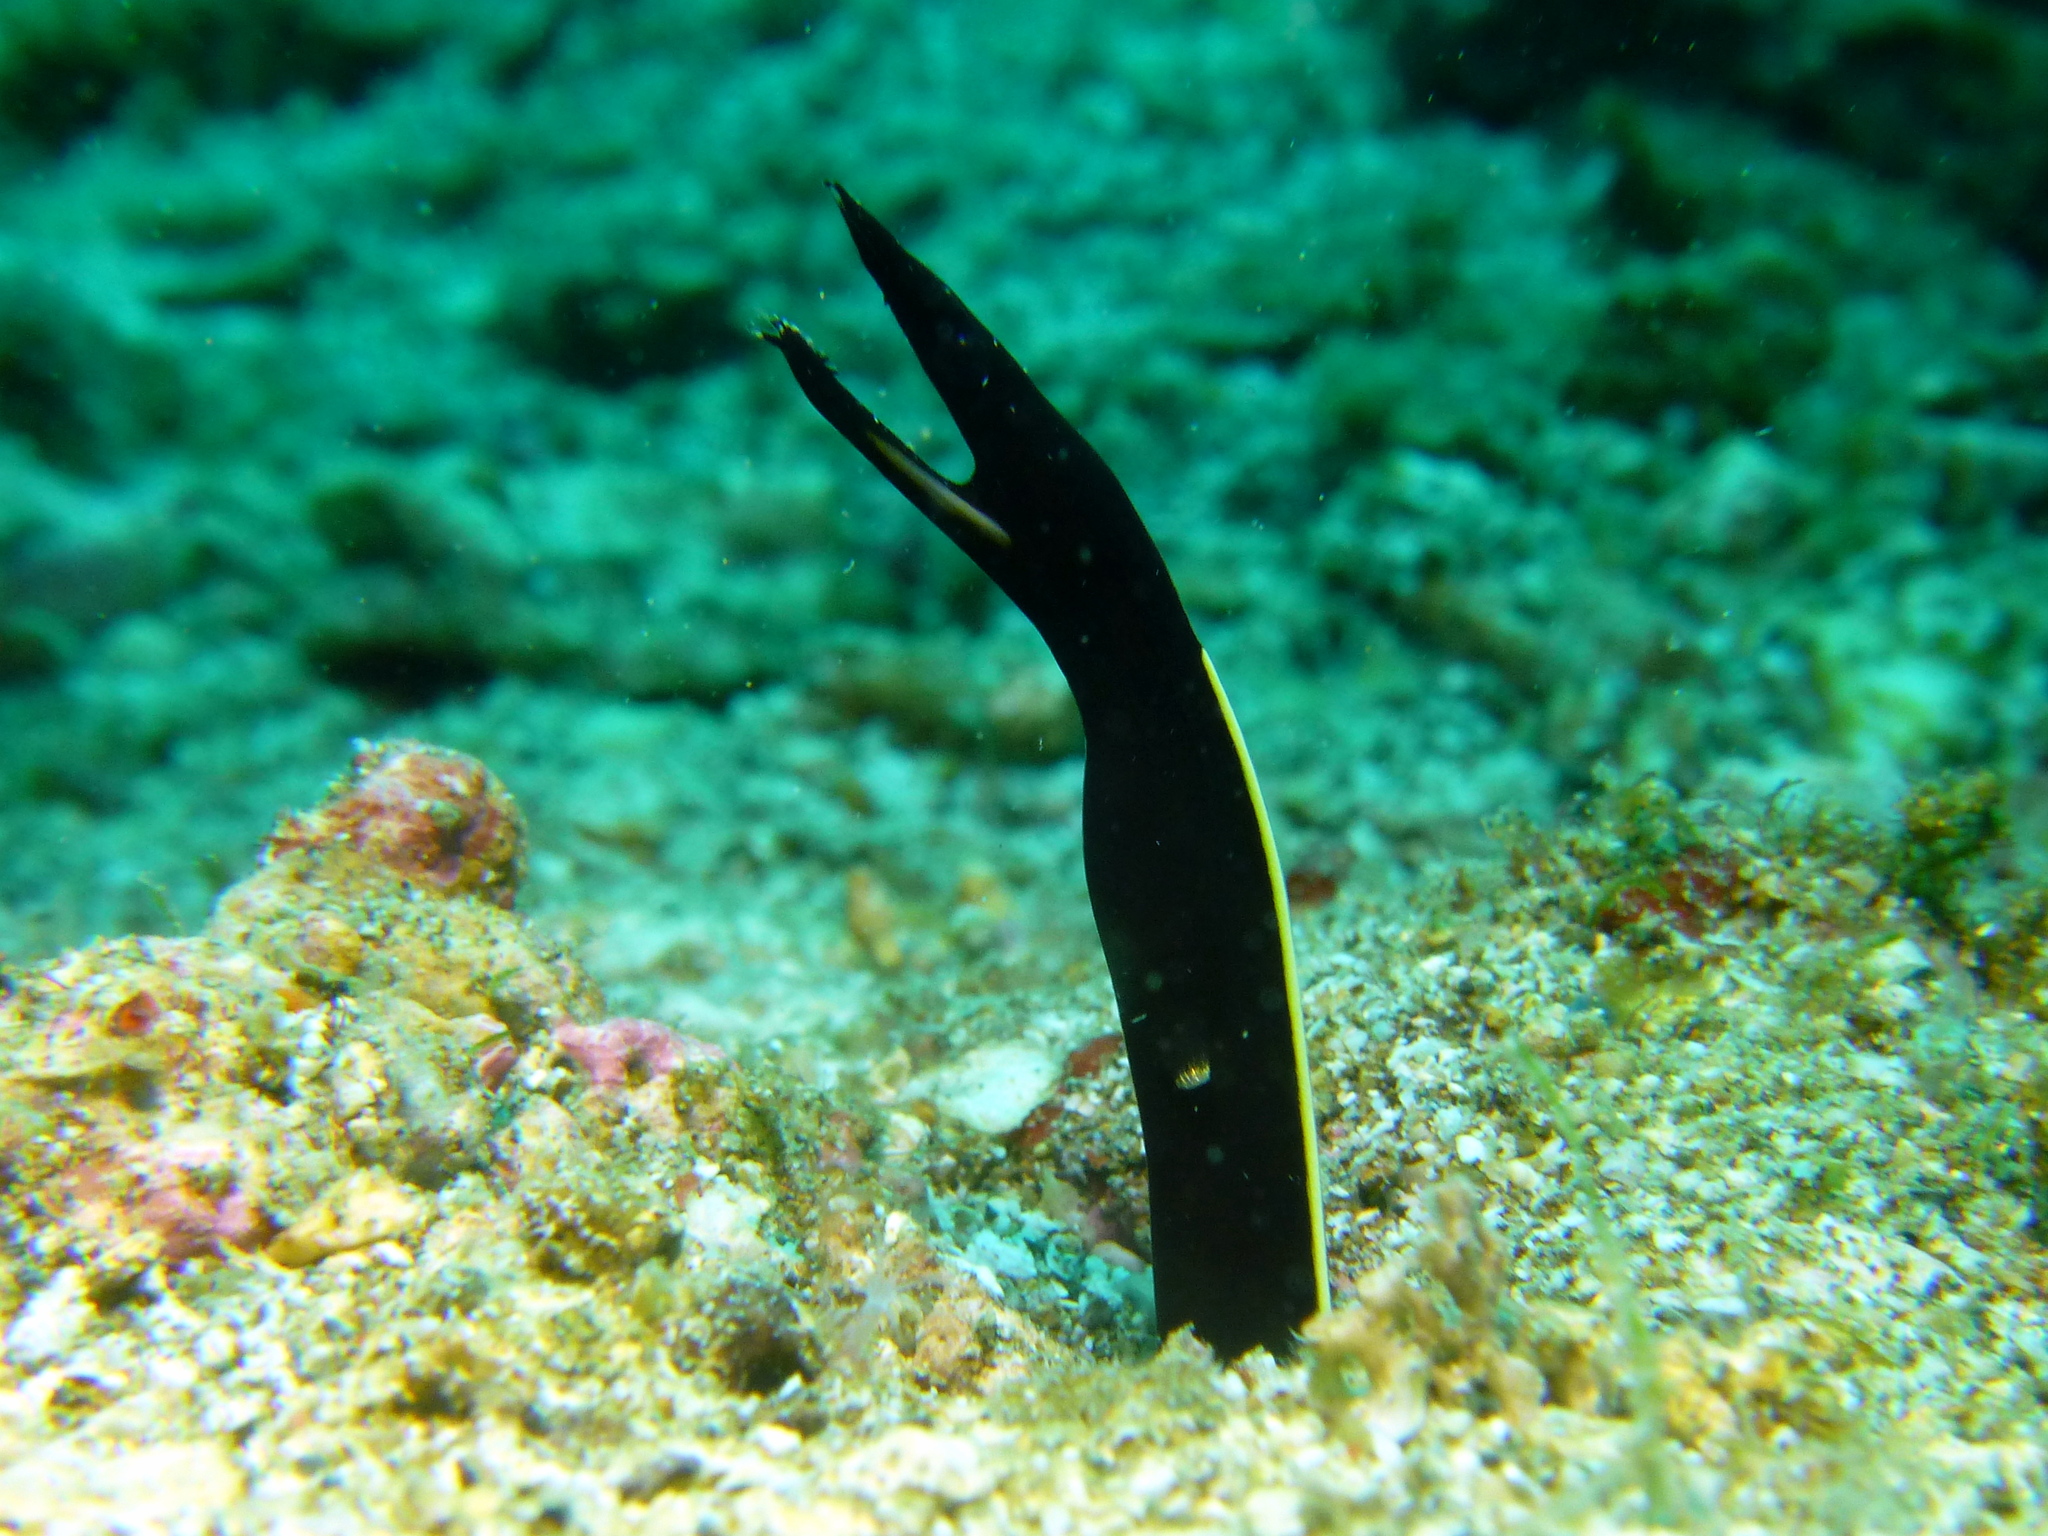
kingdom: Animalia
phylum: Chordata
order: Anguilliformes
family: Muraenidae
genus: Rhinomuraena
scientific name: Rhinomuraena quaesita
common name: Ribbon eel
